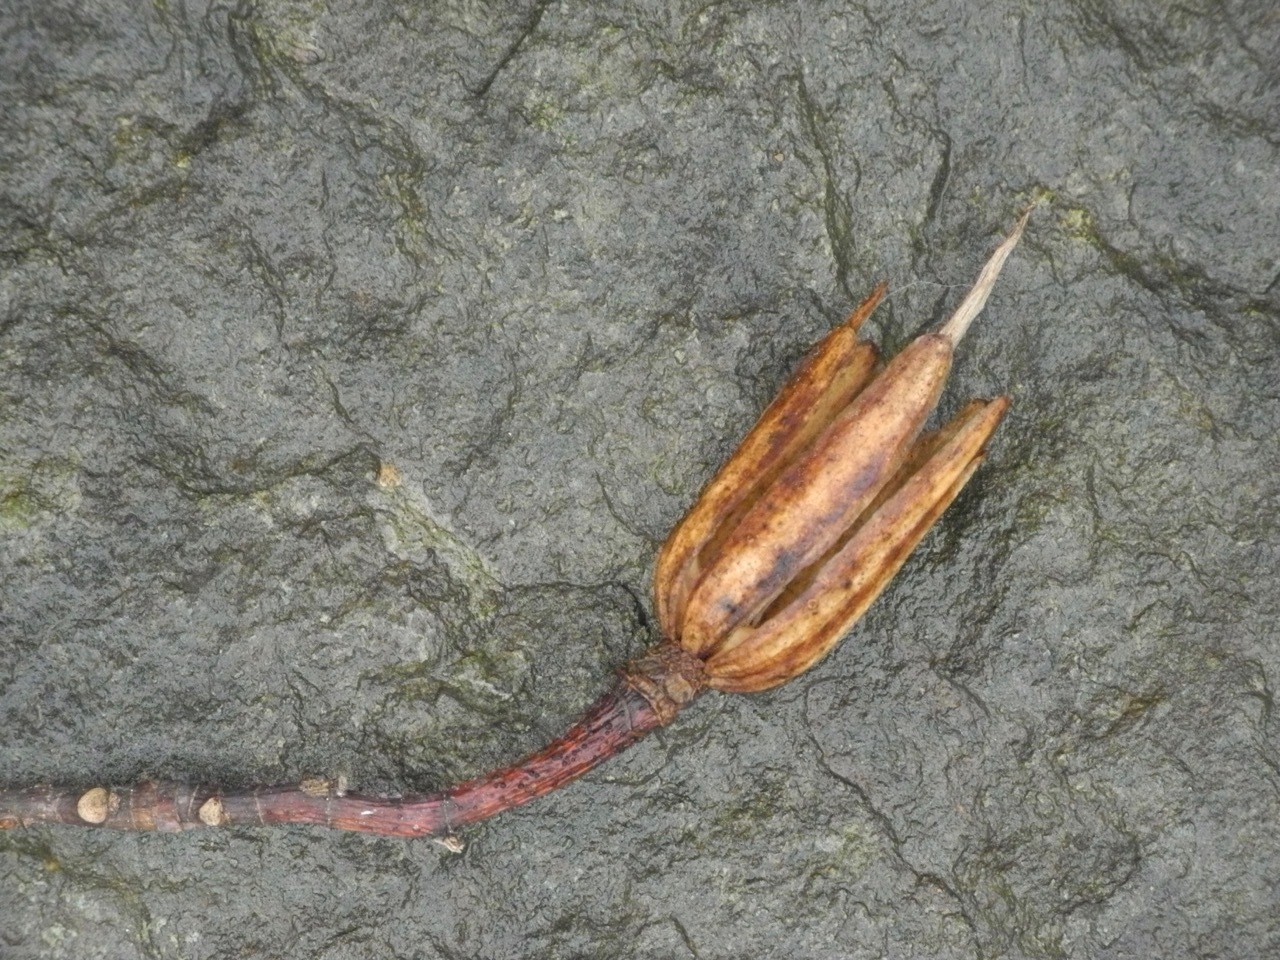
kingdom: Plantae
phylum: Tracheophyta
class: Magnoliopsida
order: Magnoliales
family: Magnoliaceae
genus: Liriodendron
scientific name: Liriodendron tulipifera
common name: Tulip tree
